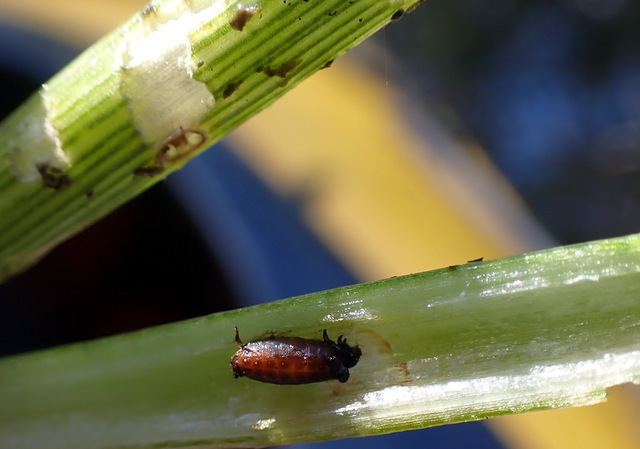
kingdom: Animalia
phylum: Arthropoda
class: Insecta
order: Coleoptera
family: Chrysomelidae
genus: Agasicles
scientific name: Agasicles hygrophila
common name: Alligatorweed flea beetle
